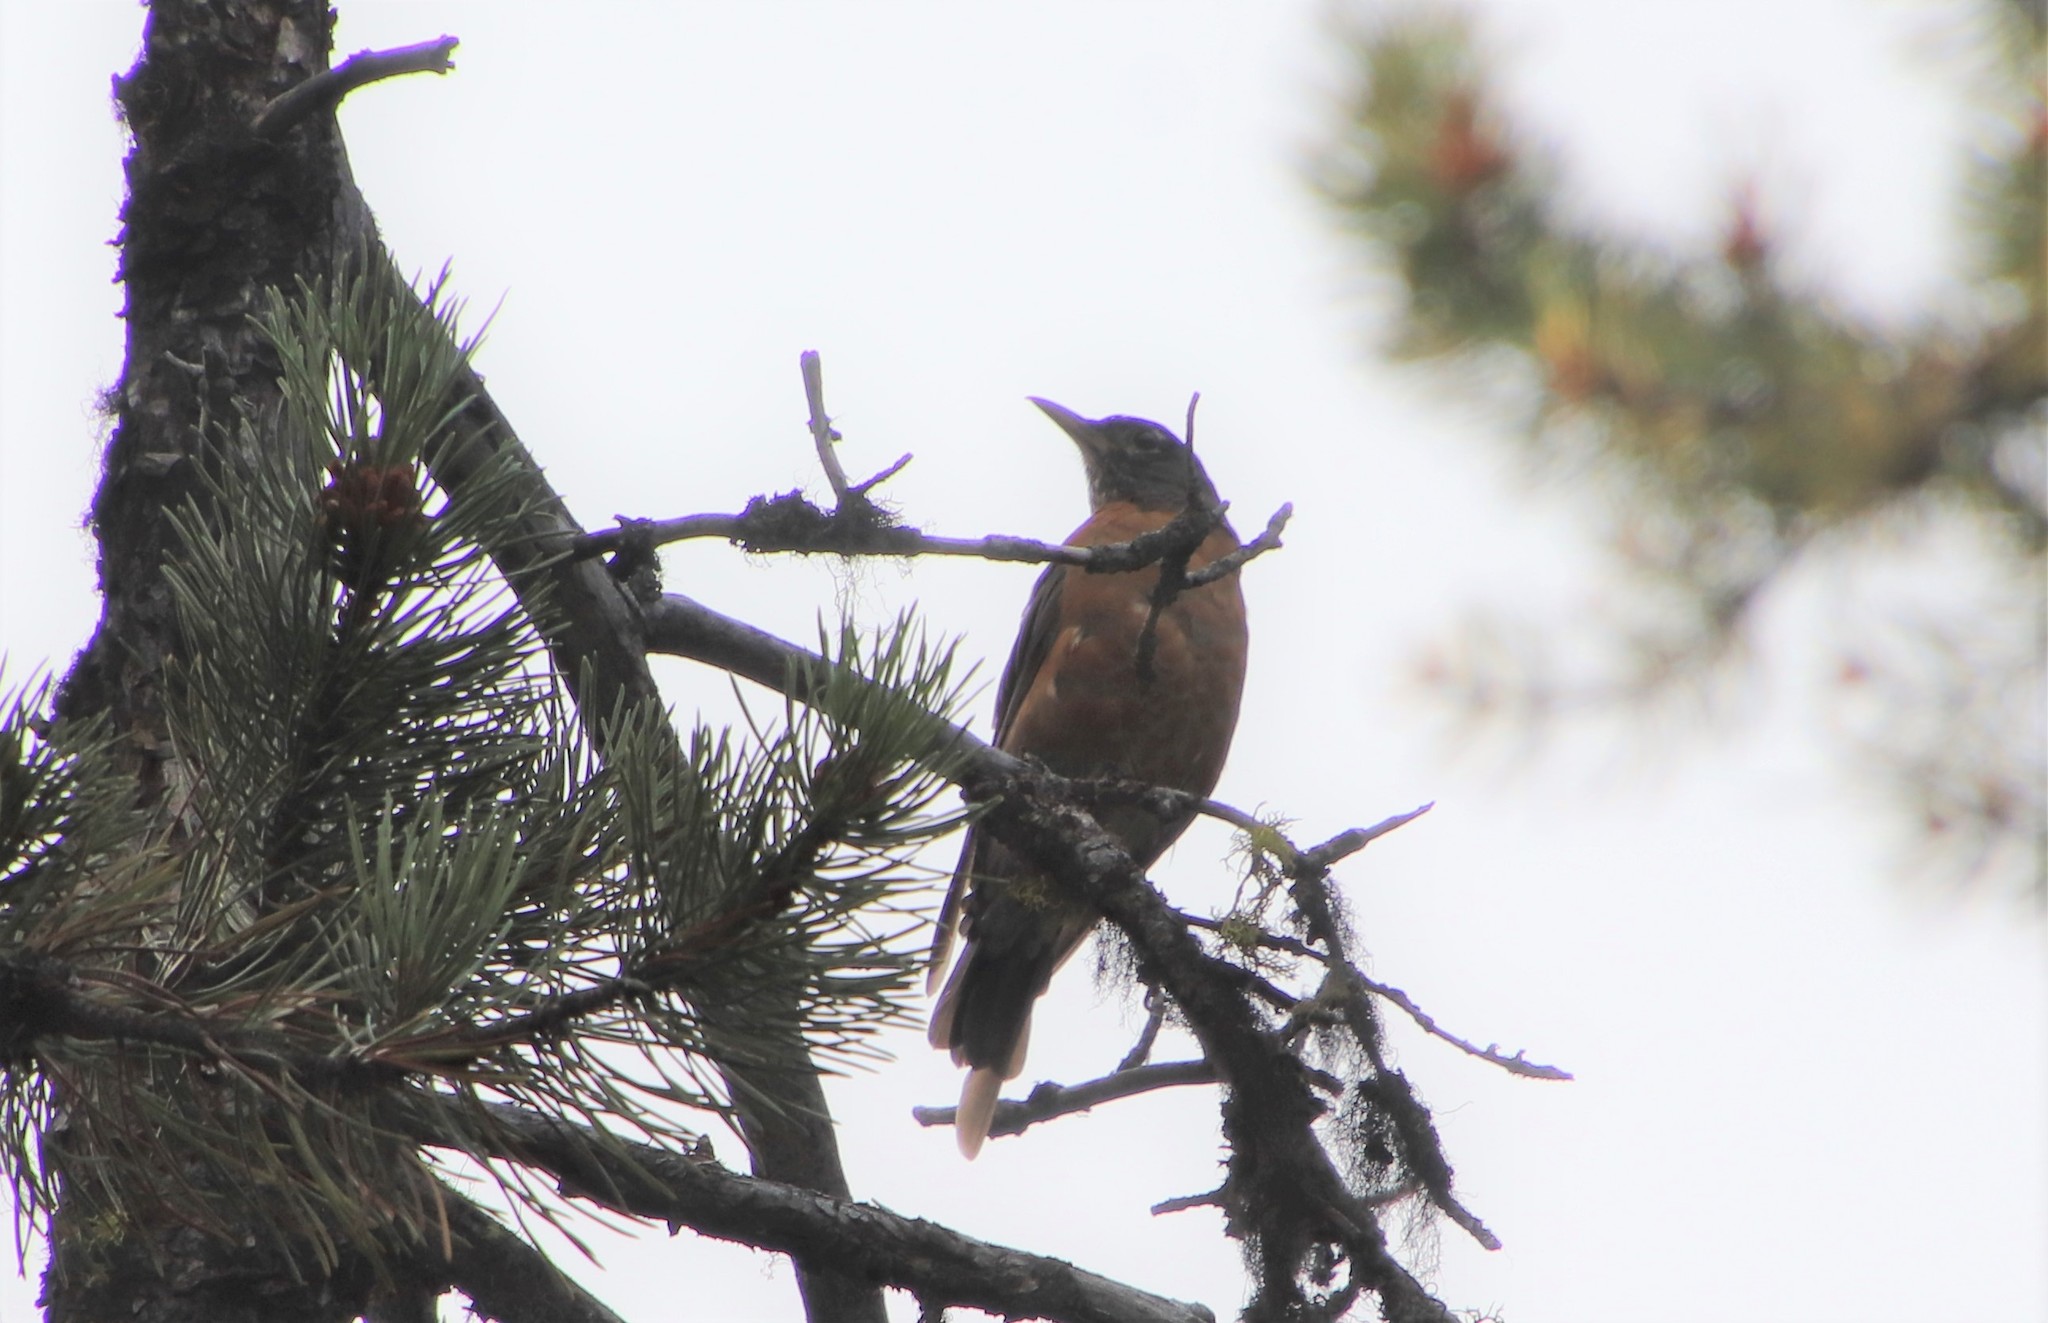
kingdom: Animalia
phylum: Chordata
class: Aves
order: Passeriformes
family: Turdidae
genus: Turdus
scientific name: Turdus migratorius
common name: American robin
